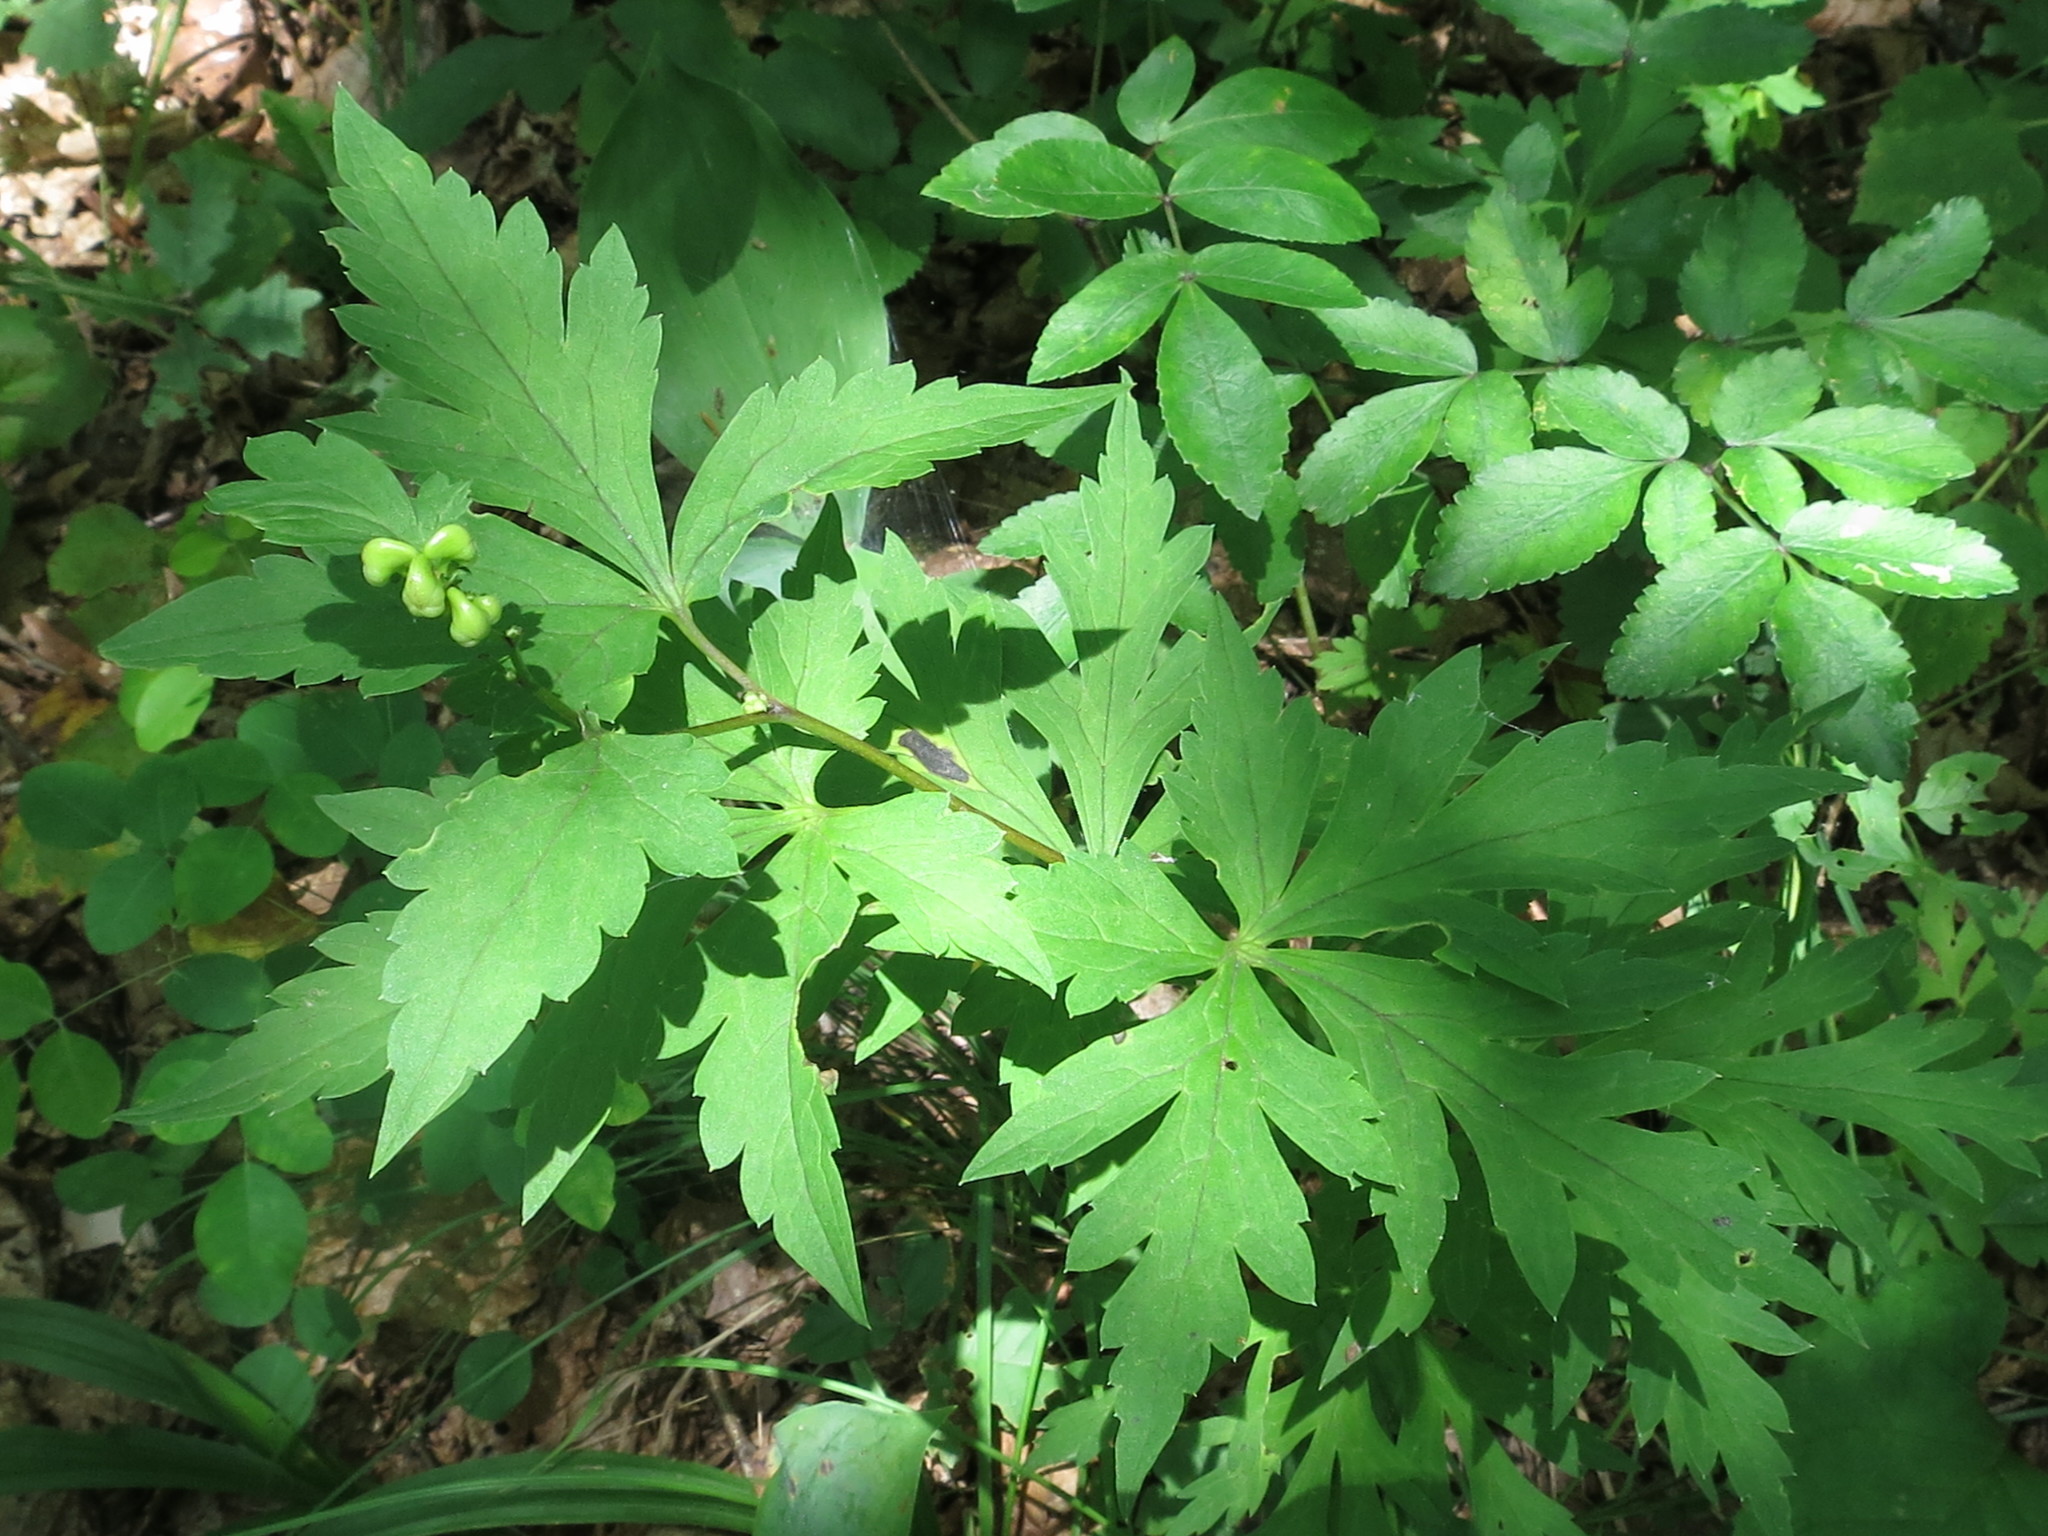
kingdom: Plantae
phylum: Tracheophyta
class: Magnoliopsida
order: Ranunculales
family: Ranunculaceae
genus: Aconitum
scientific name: Aconitum sczukinii
